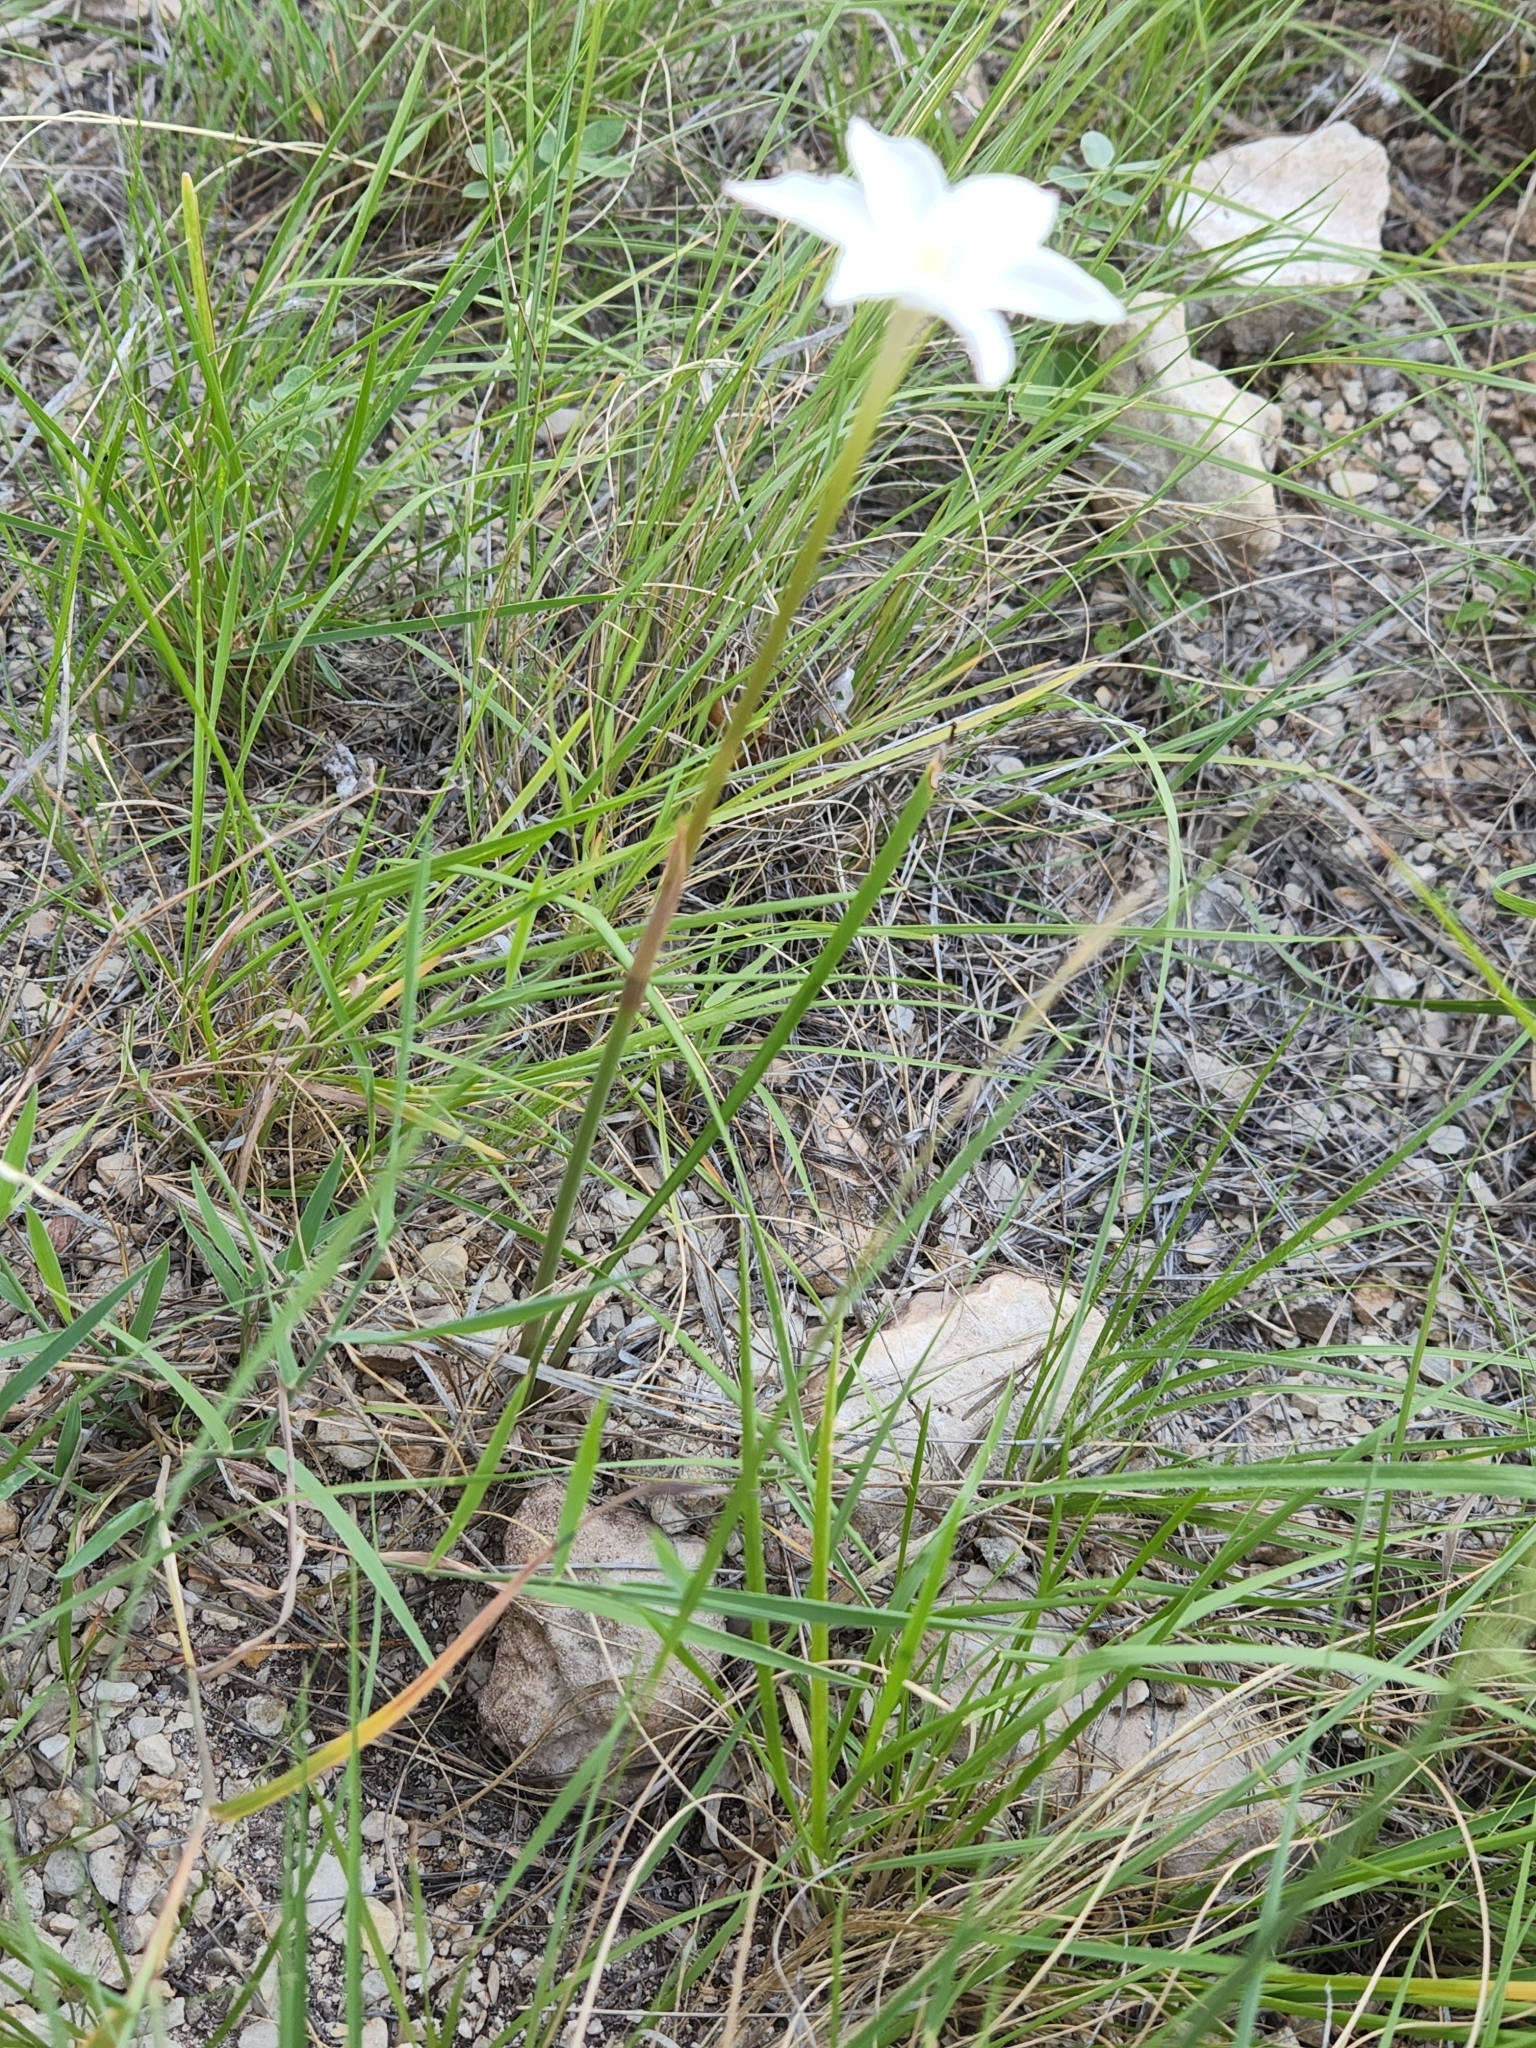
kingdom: Plantae
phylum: Tracheophyta
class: Liliopsida
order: Asparagales
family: Amaryllidaceae
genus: Zephyranthes
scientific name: Zephyranthes chlorosolen
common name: Evening rain-lily
